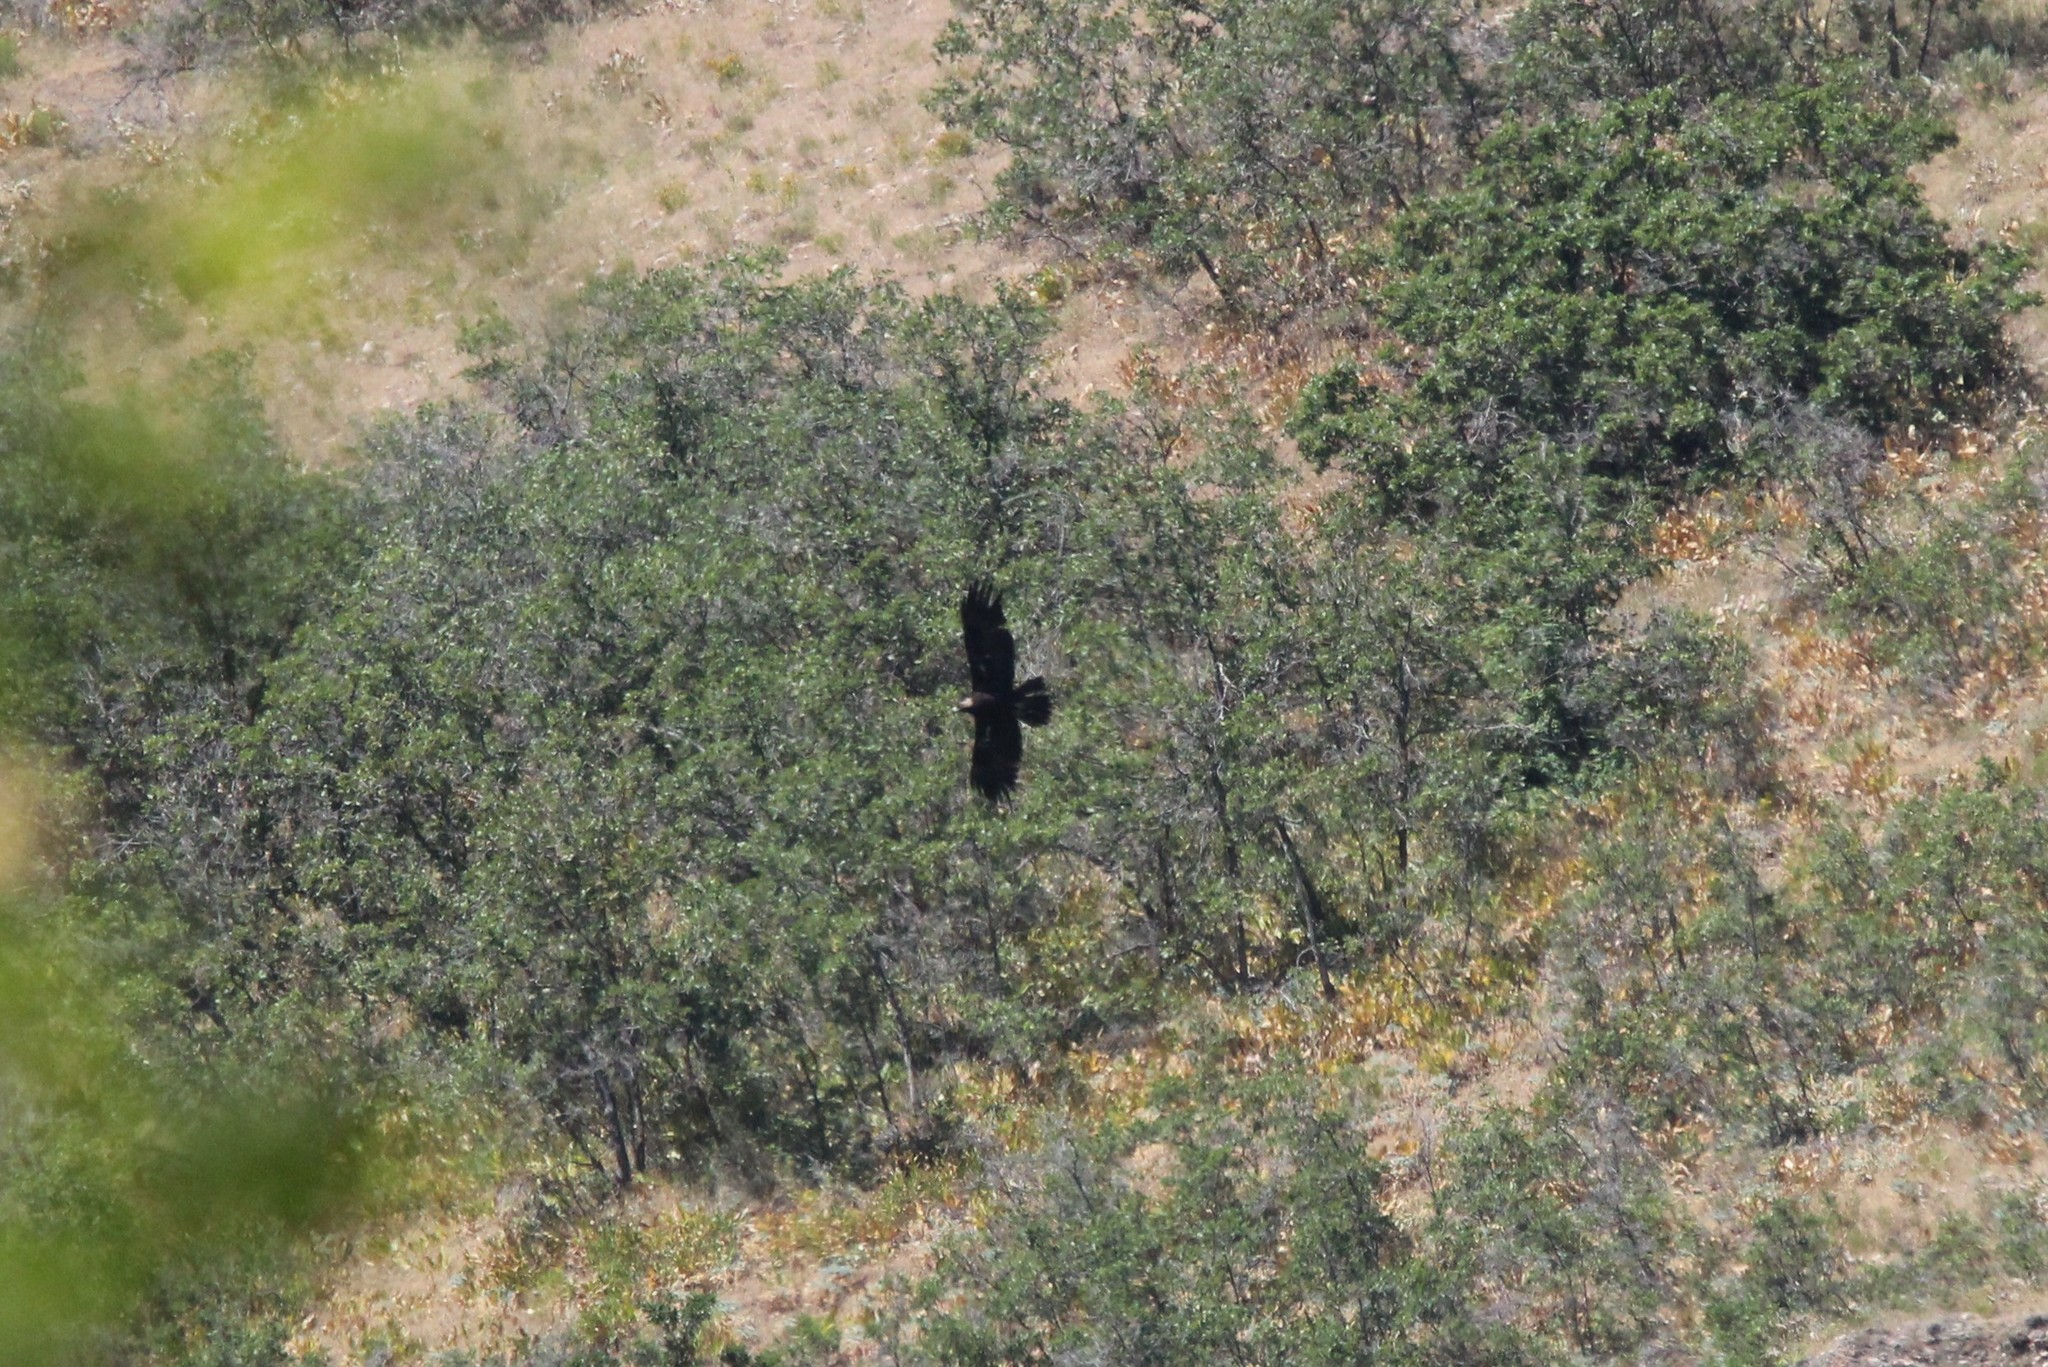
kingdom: Animalia
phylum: Chordata
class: Aves
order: Accipitriformes
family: Accipitridae
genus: Aquila
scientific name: Aquila chrysaetos
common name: Golden eagle
